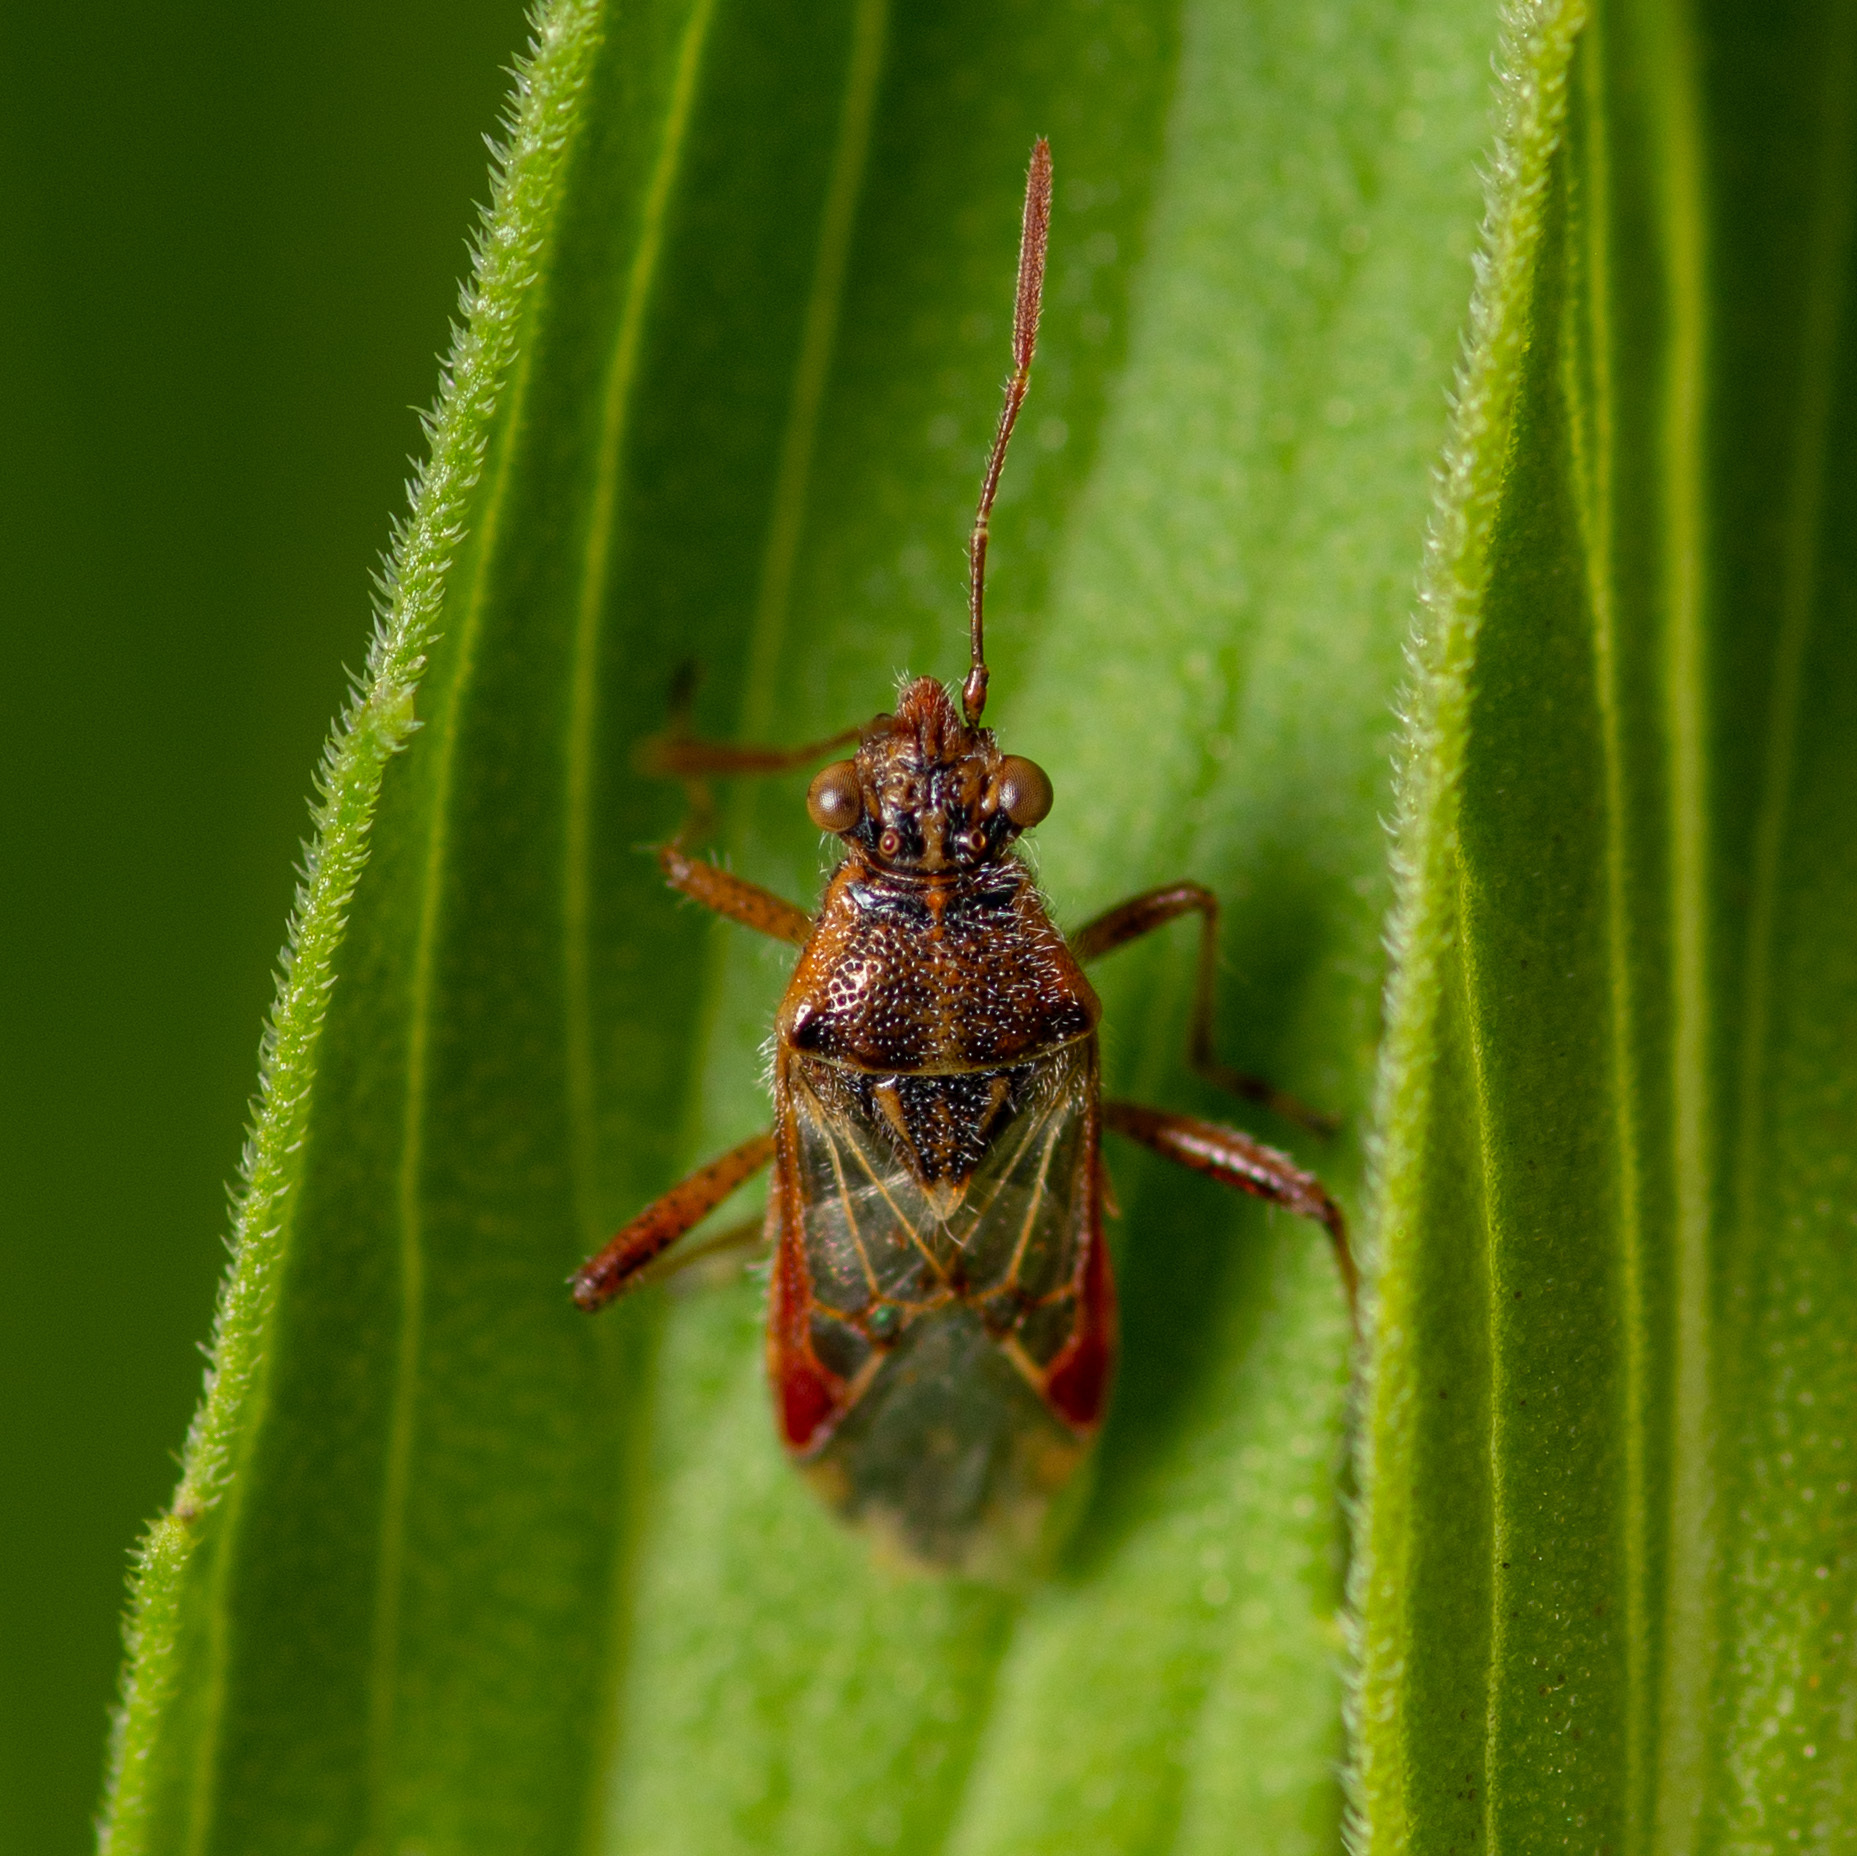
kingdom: Animalia
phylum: Arthropoda
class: Insecta
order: Hemiptera
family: Rhopalidae
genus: Liorhyssus
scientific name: Liorhyssus hyalinus
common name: Scentless plant bug
